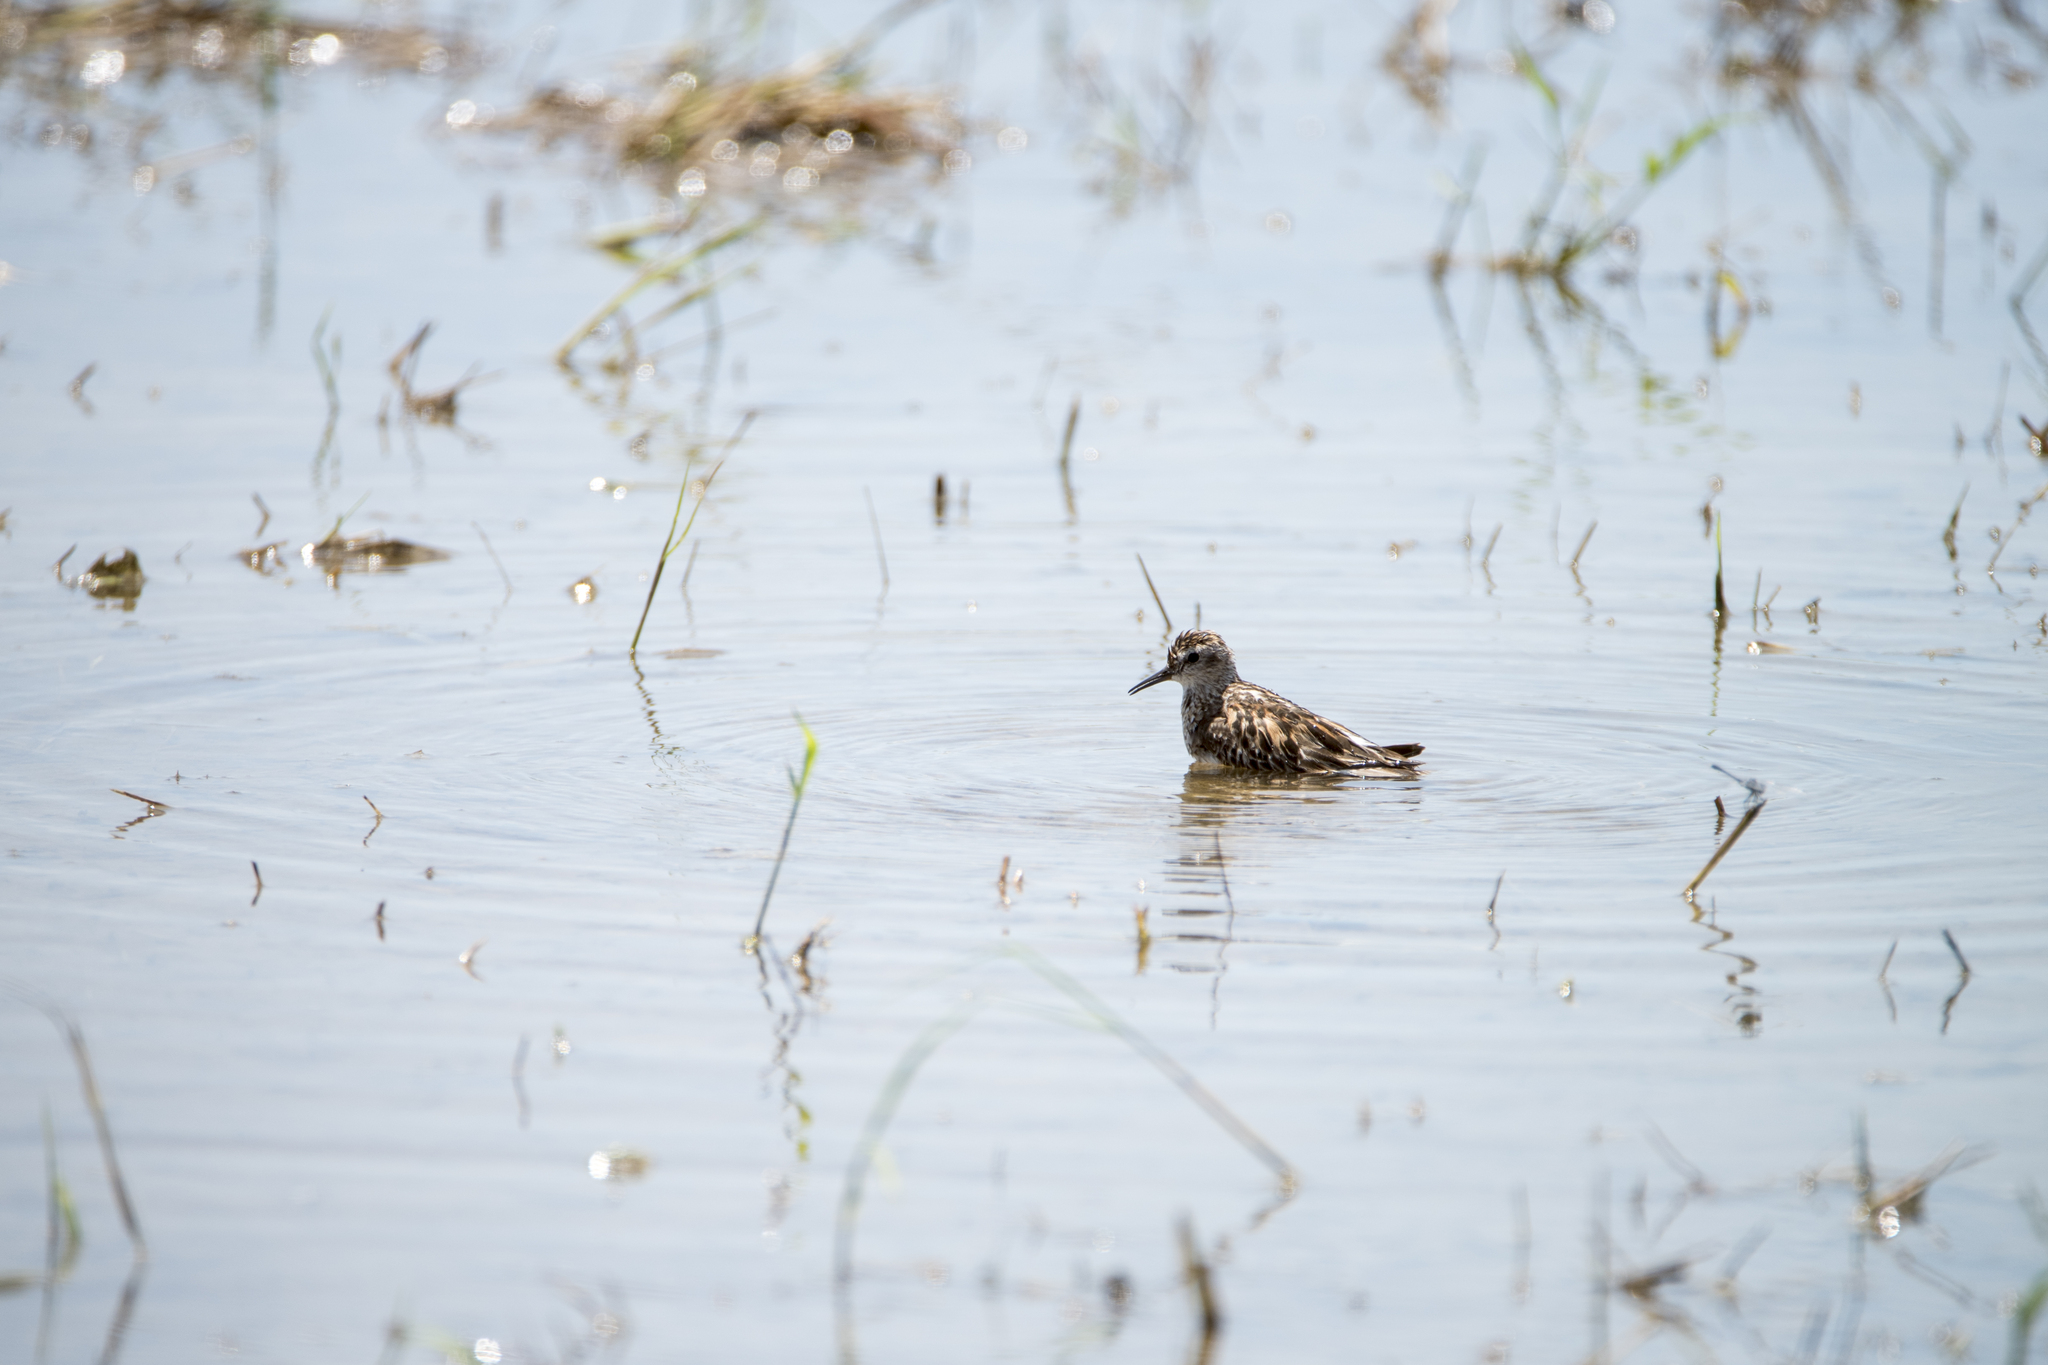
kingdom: Animalia
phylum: Chordata
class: Aves
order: Charadriiformes
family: Scolopacidae
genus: Calidris
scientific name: Calidris subminuta
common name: Long-toed stint
